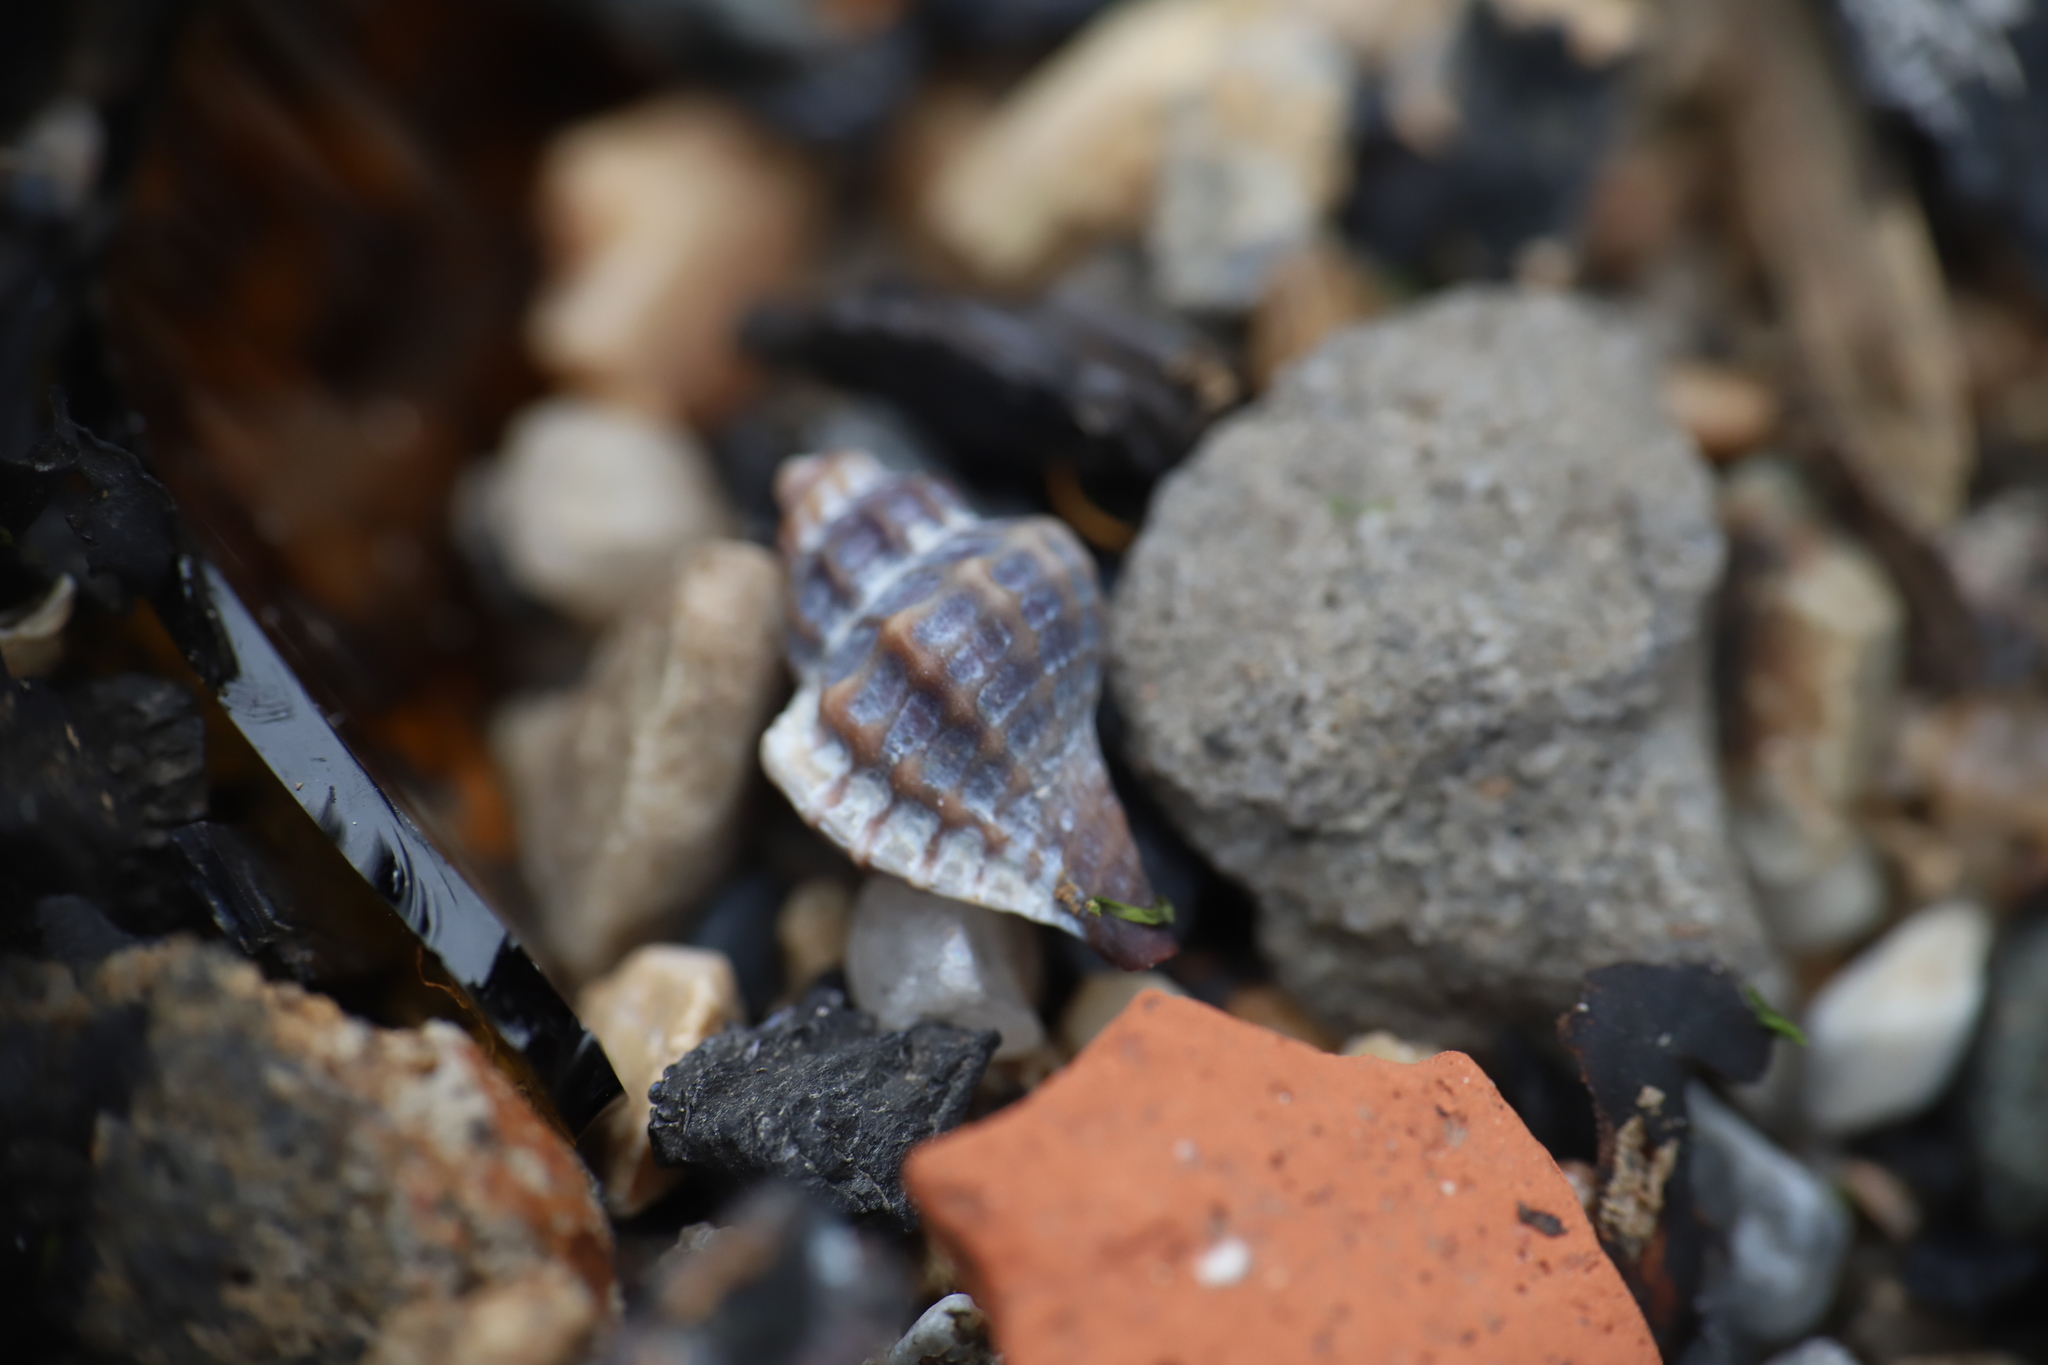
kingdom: Animalia
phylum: Mollusca
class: Gastropoda
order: Neogastropoda
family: Muricidae
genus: Eupleura
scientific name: Eupleura caudata
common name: Thick-lip drill
